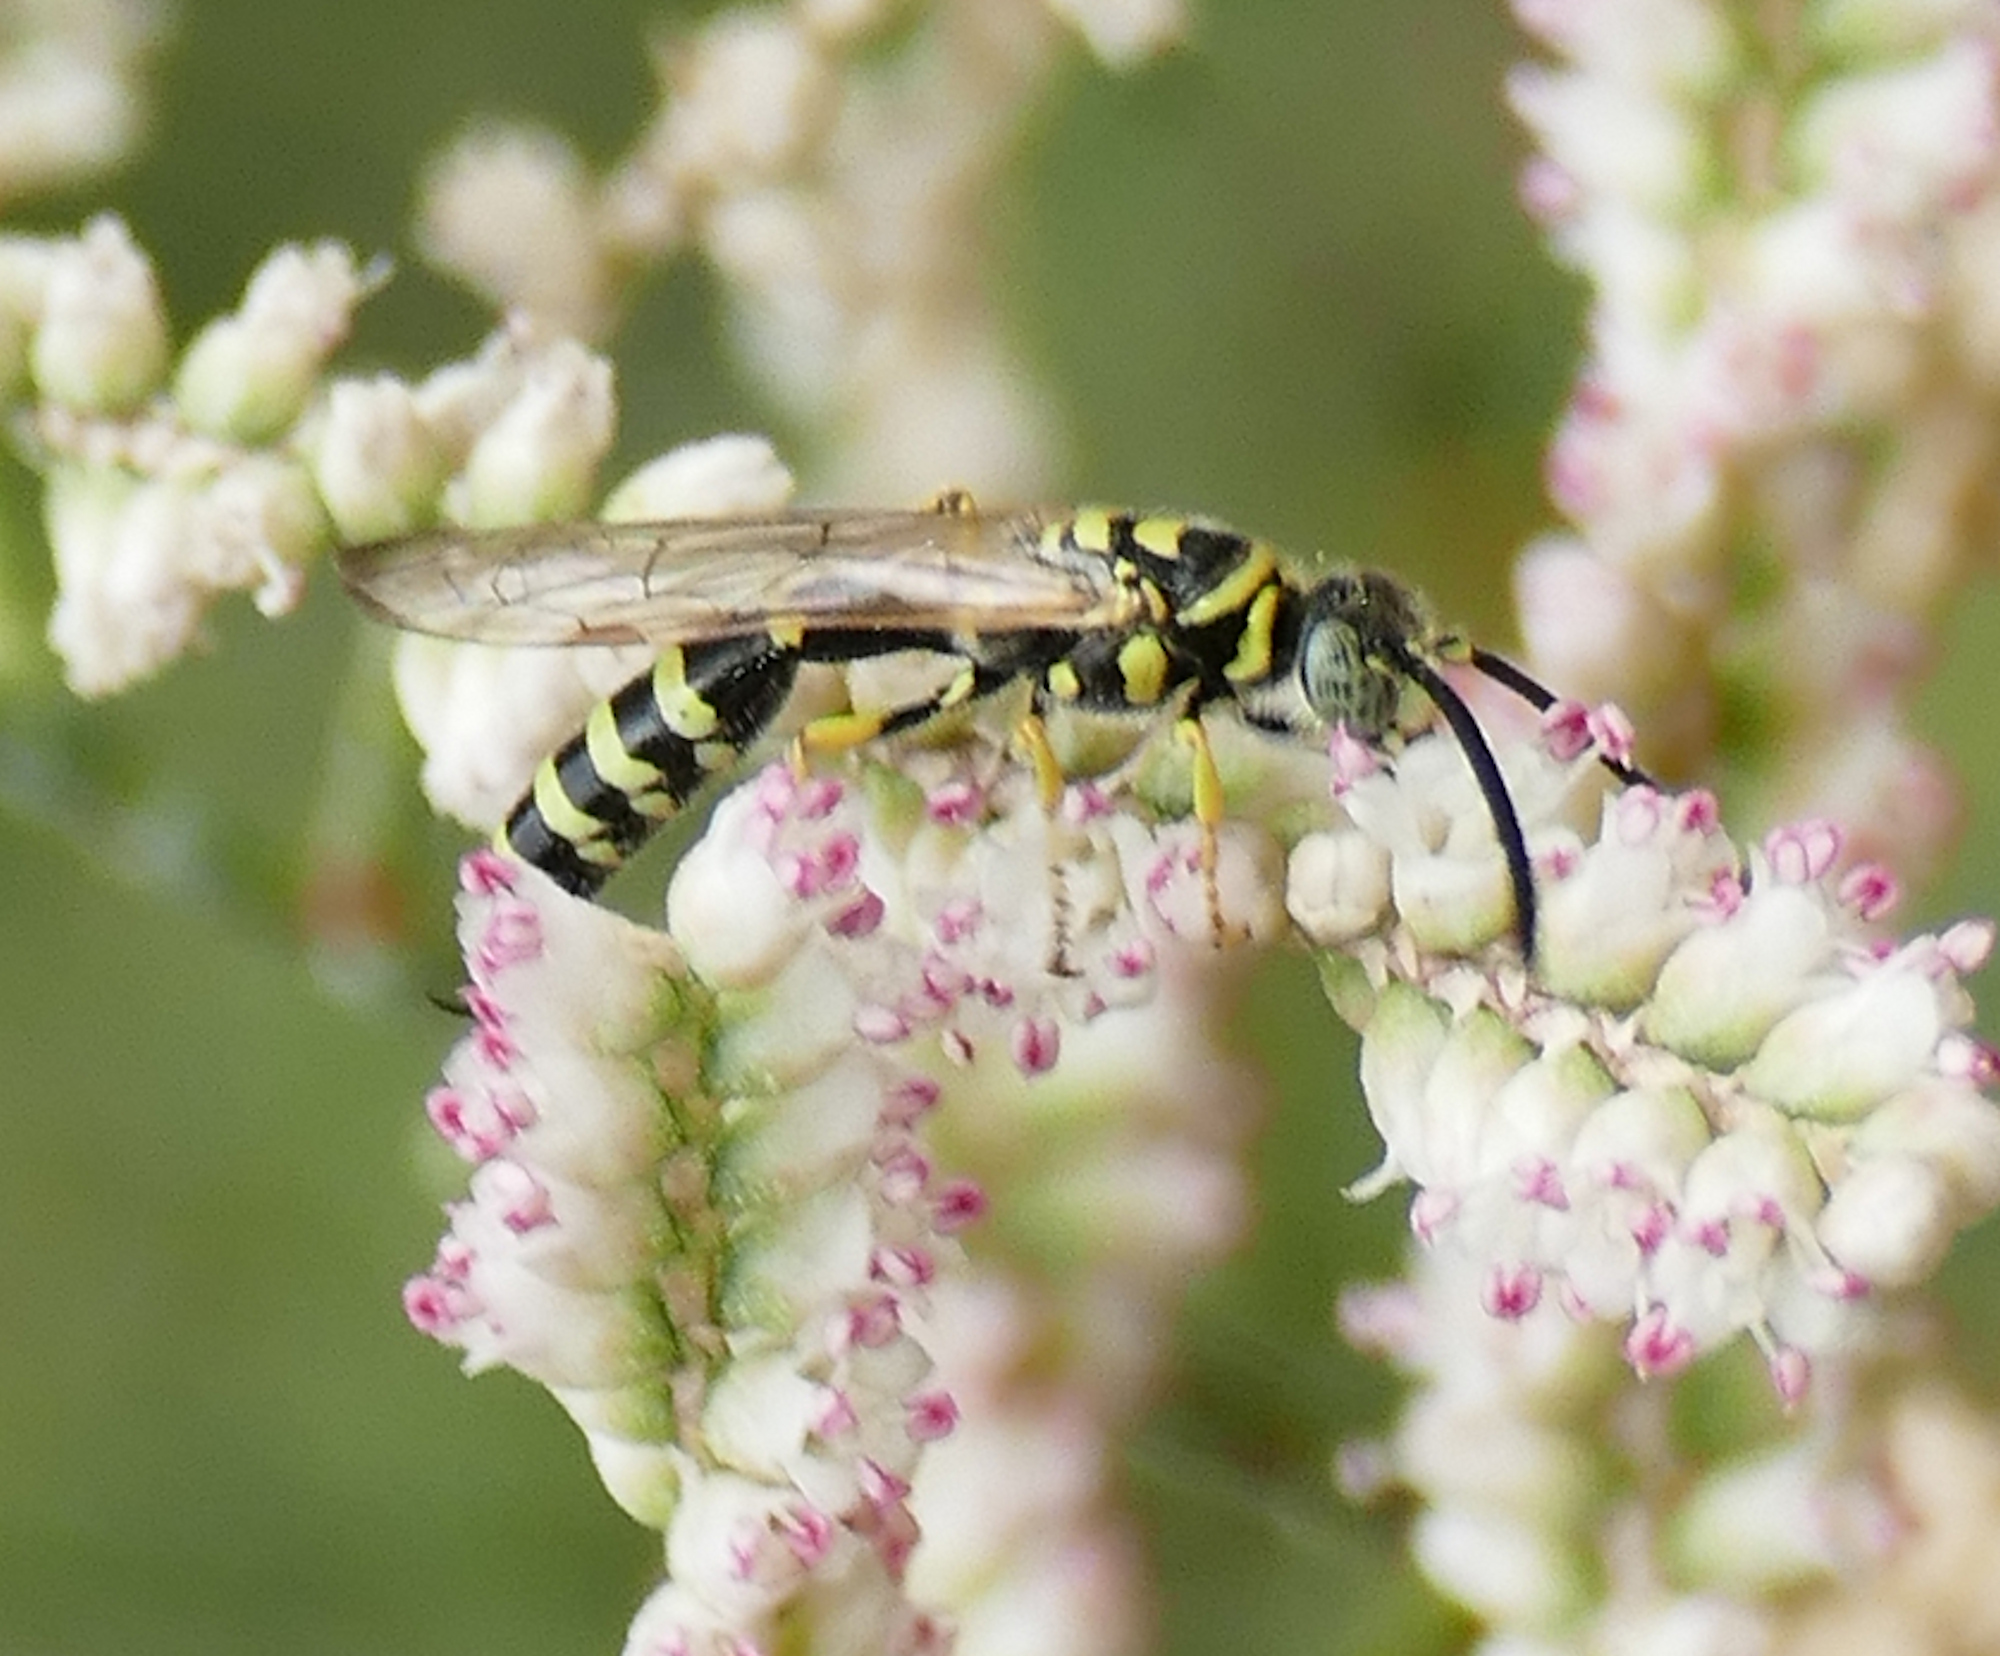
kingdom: Animalia
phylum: Arthropoda
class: Insecta
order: Hymenoptera
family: Tiphiidae
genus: Myzinum
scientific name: Myzinum frontalis
